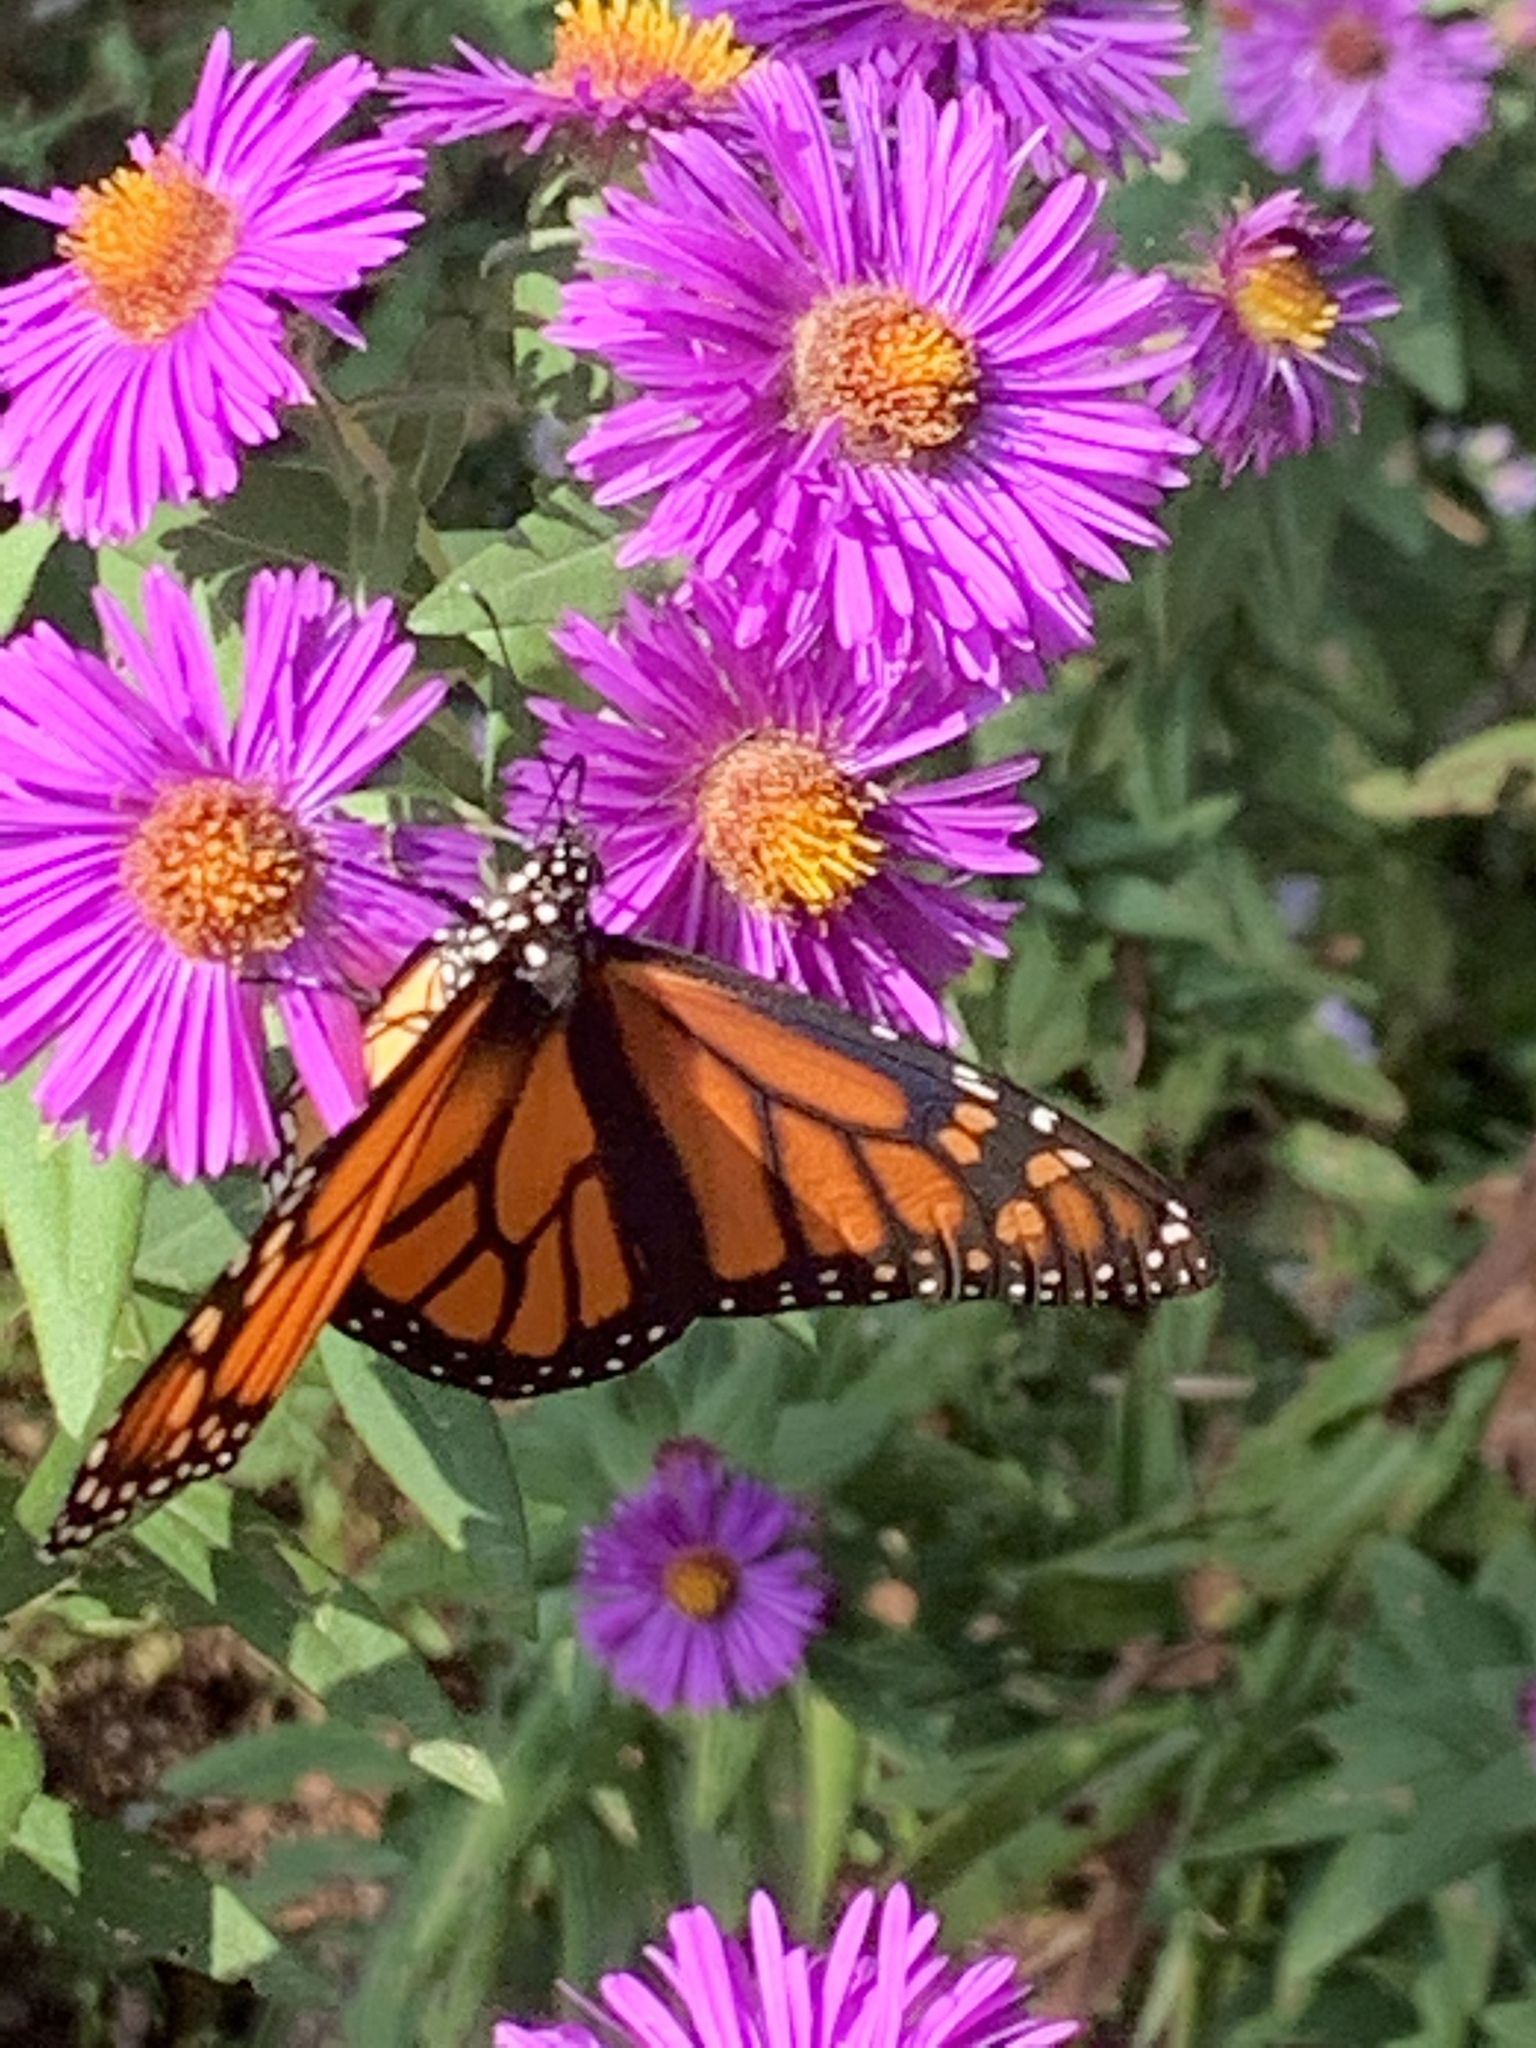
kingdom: Animalia
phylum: Arthropoda
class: Insecta
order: Lepidoptera
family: Nymphalidae
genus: Danaus
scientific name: Danaus plexippus
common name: Monarch
